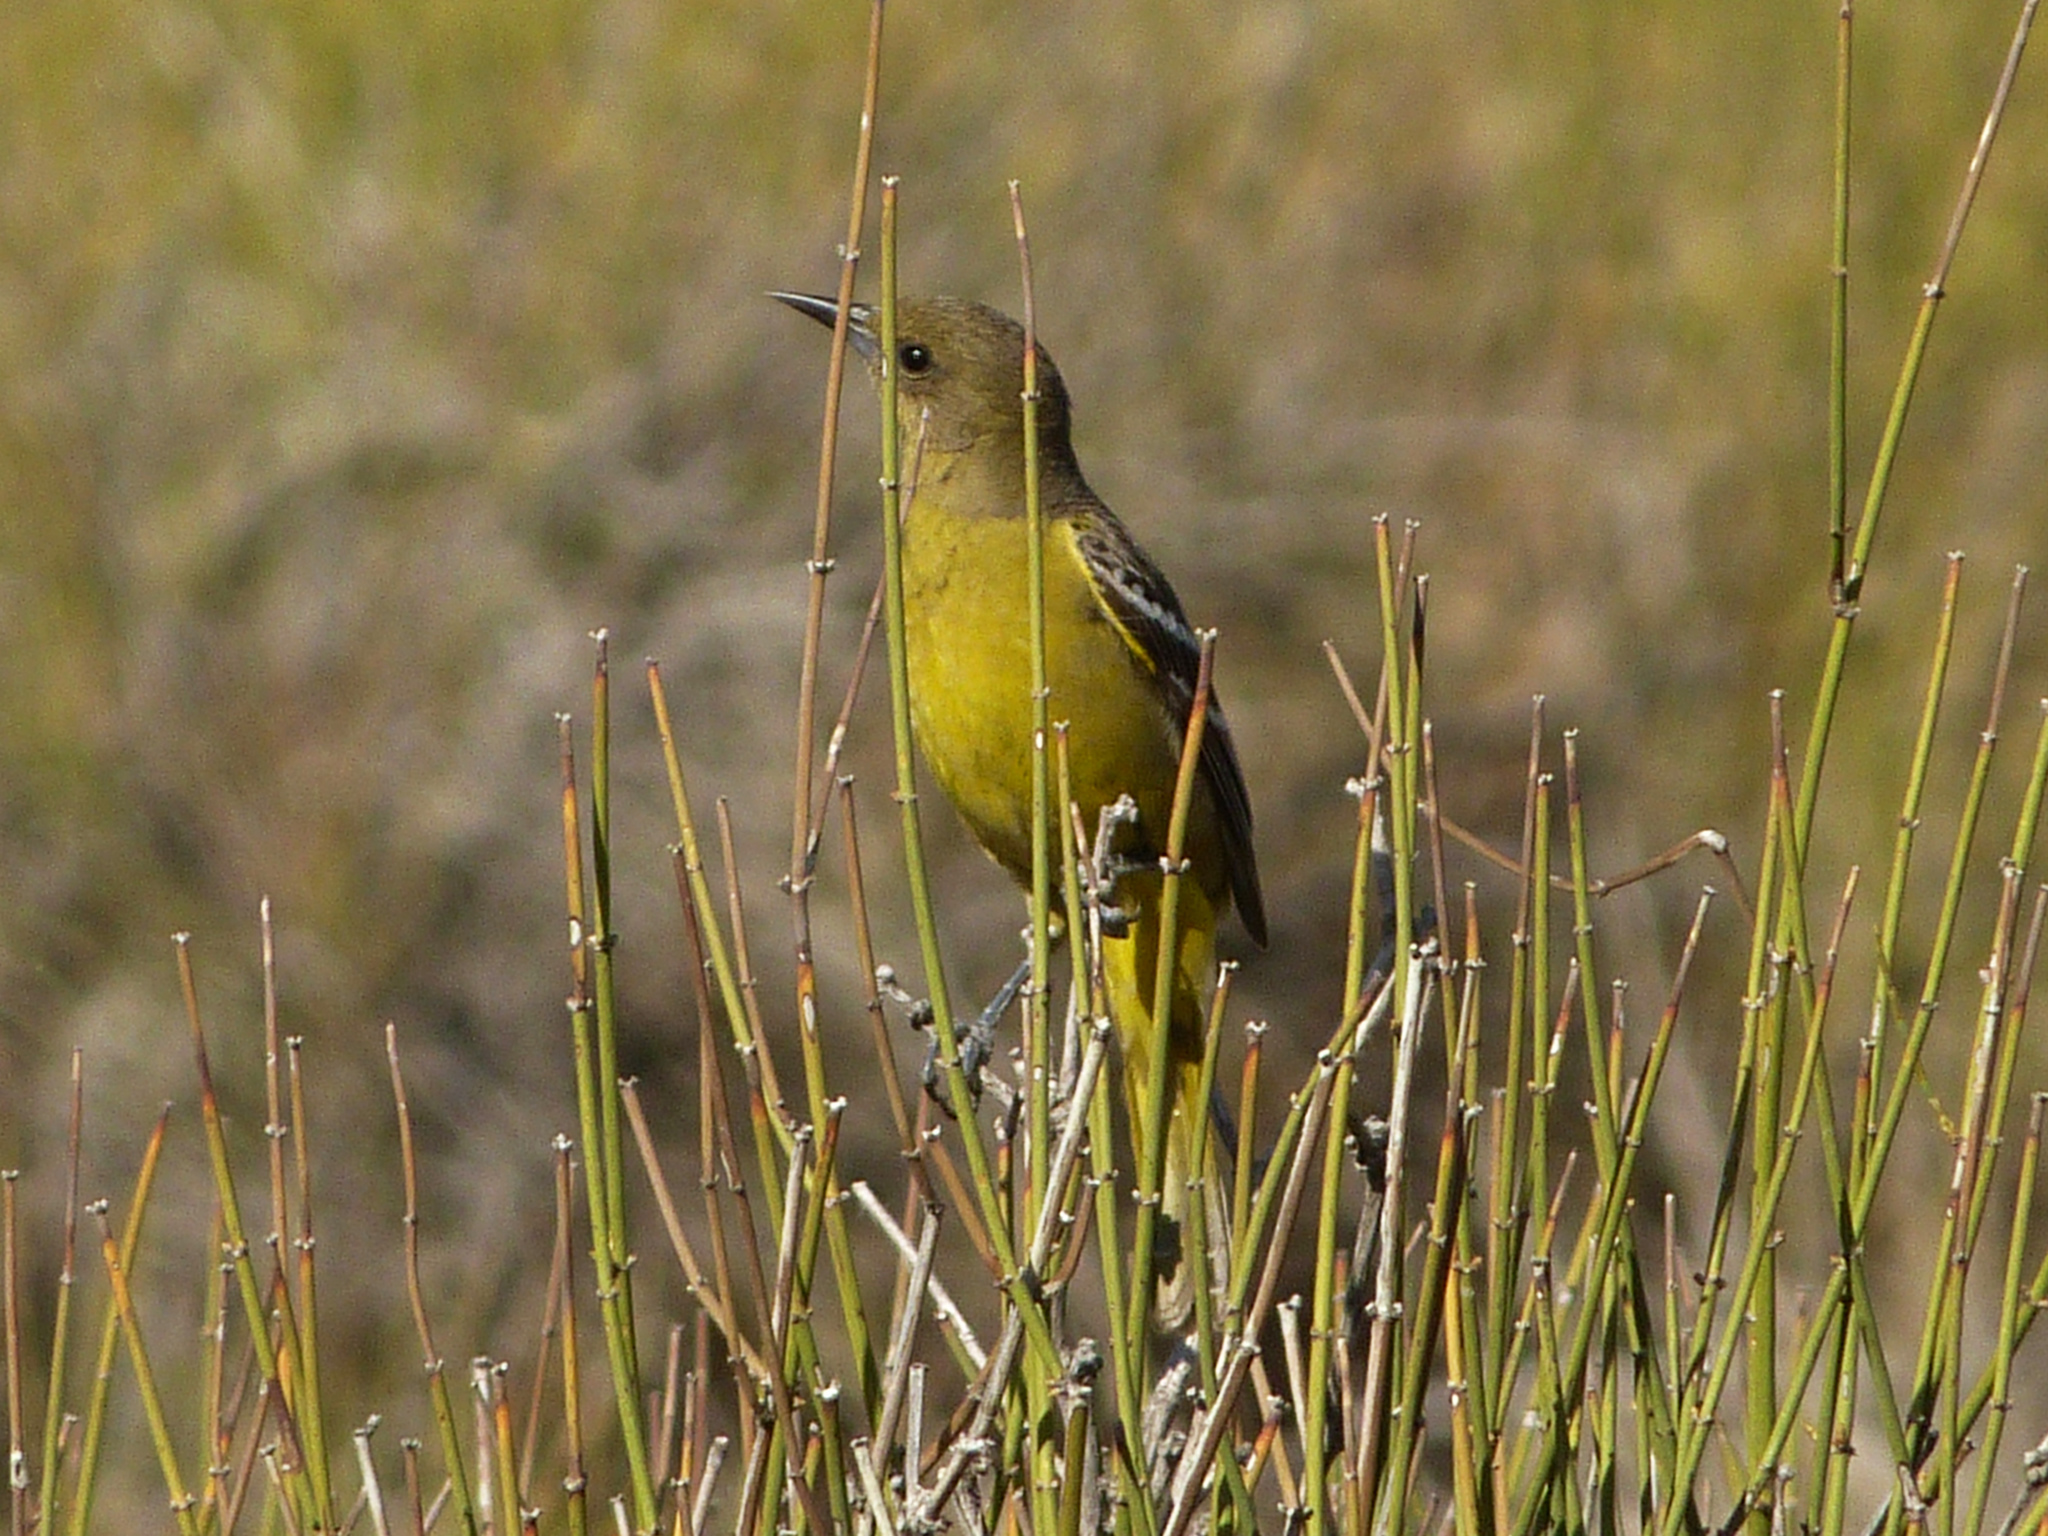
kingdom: Animalia
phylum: Chordata
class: Aves
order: Passeriformes
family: Icteridae
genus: Icterus
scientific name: Icterus parisorum
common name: Scott's oriole
